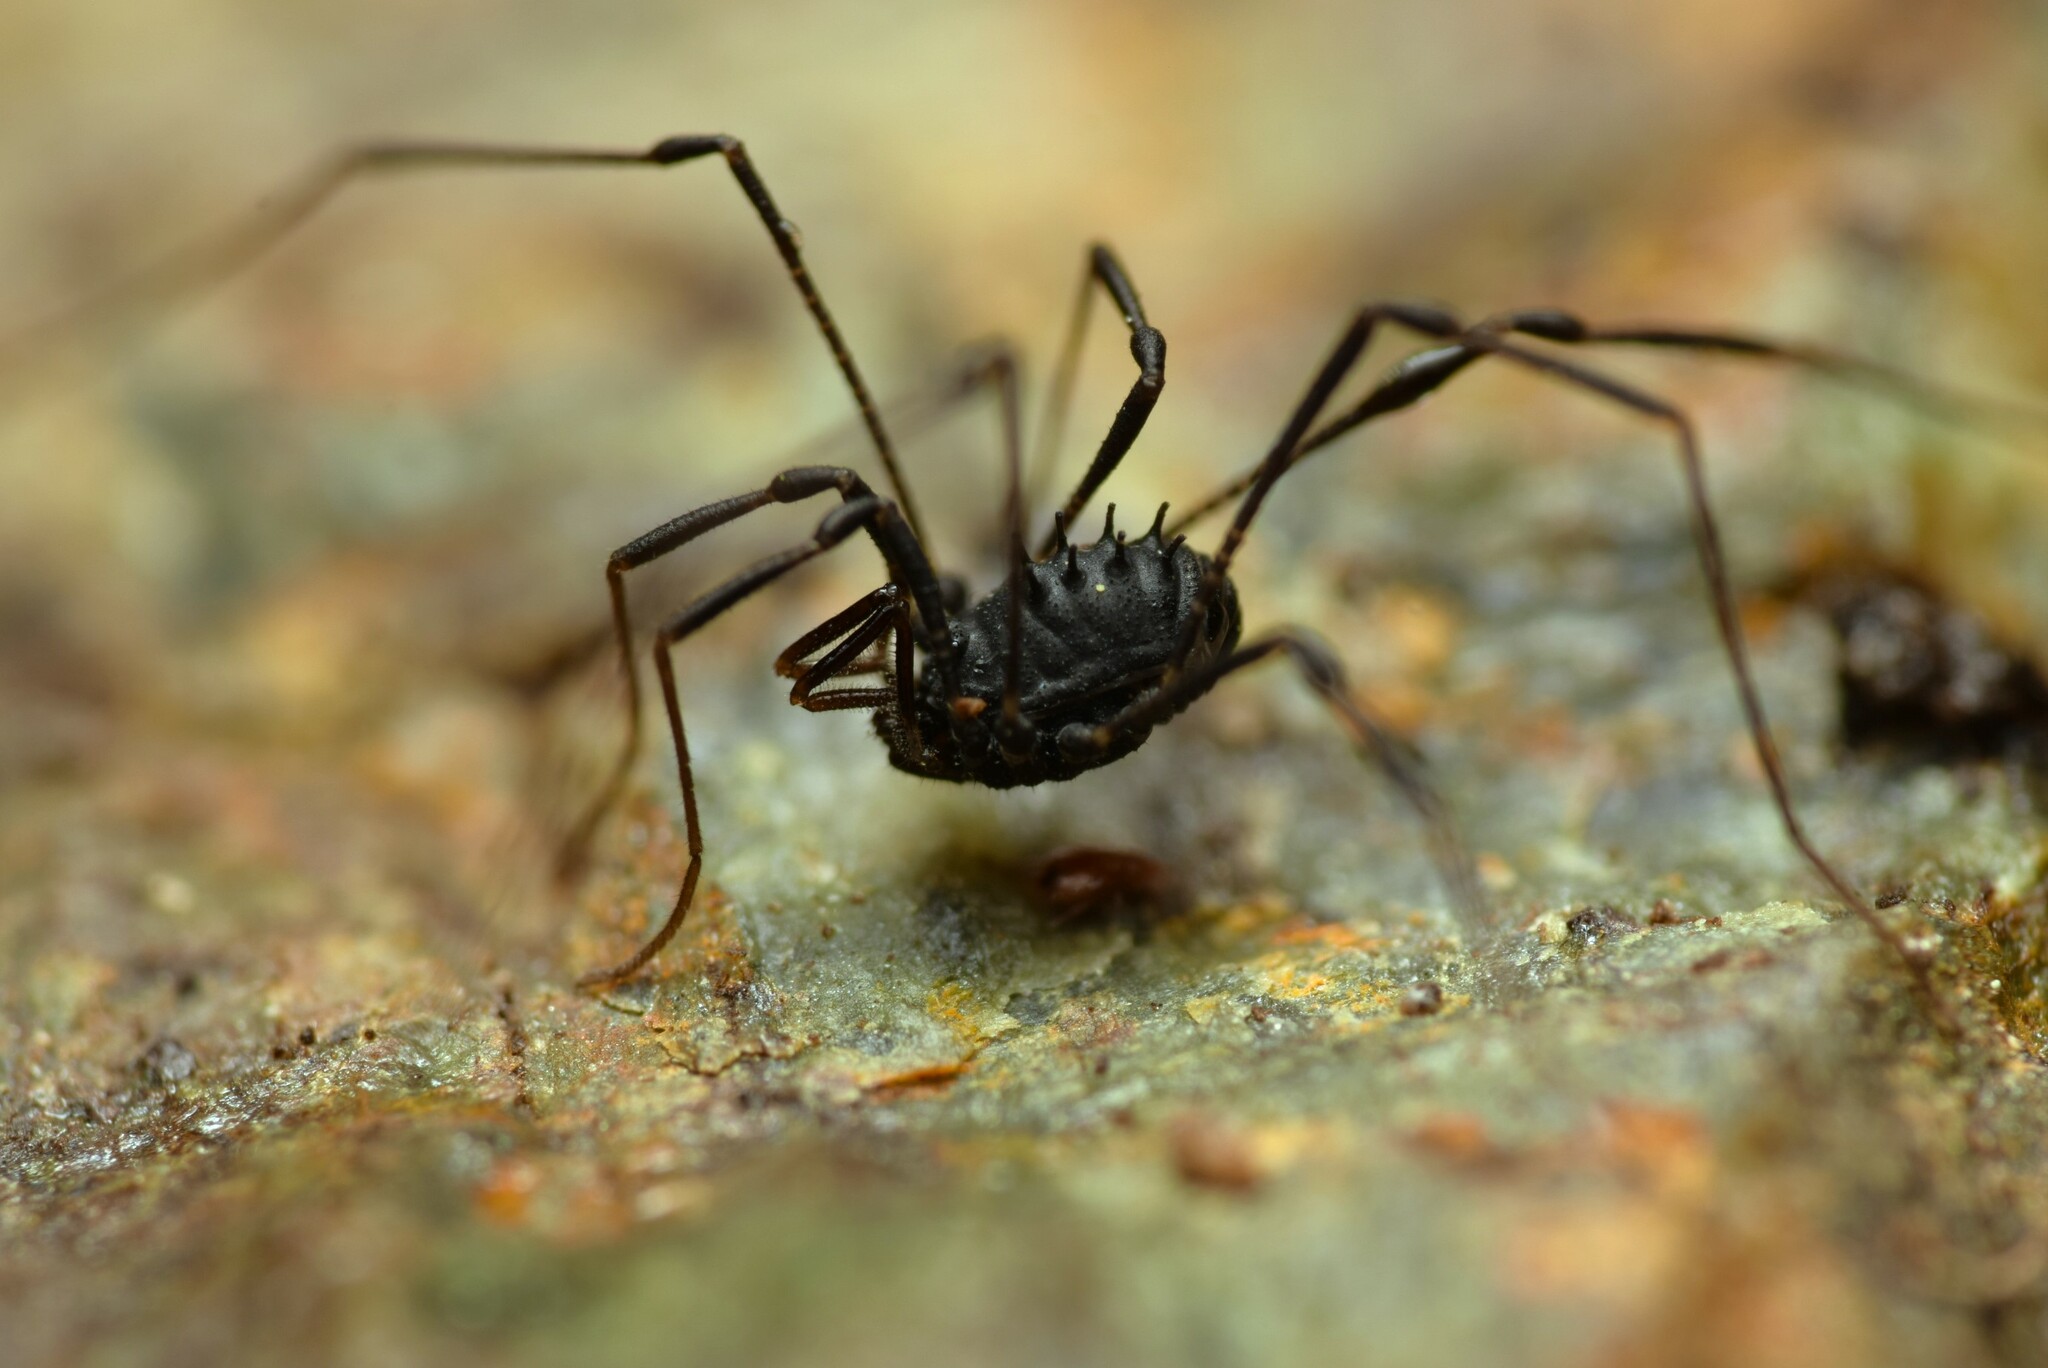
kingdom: Animalia
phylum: Arthropoda
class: Arachnida
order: Opiliones
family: Nemastomatidae
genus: Nemastomella
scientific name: Nemastomella dubia
